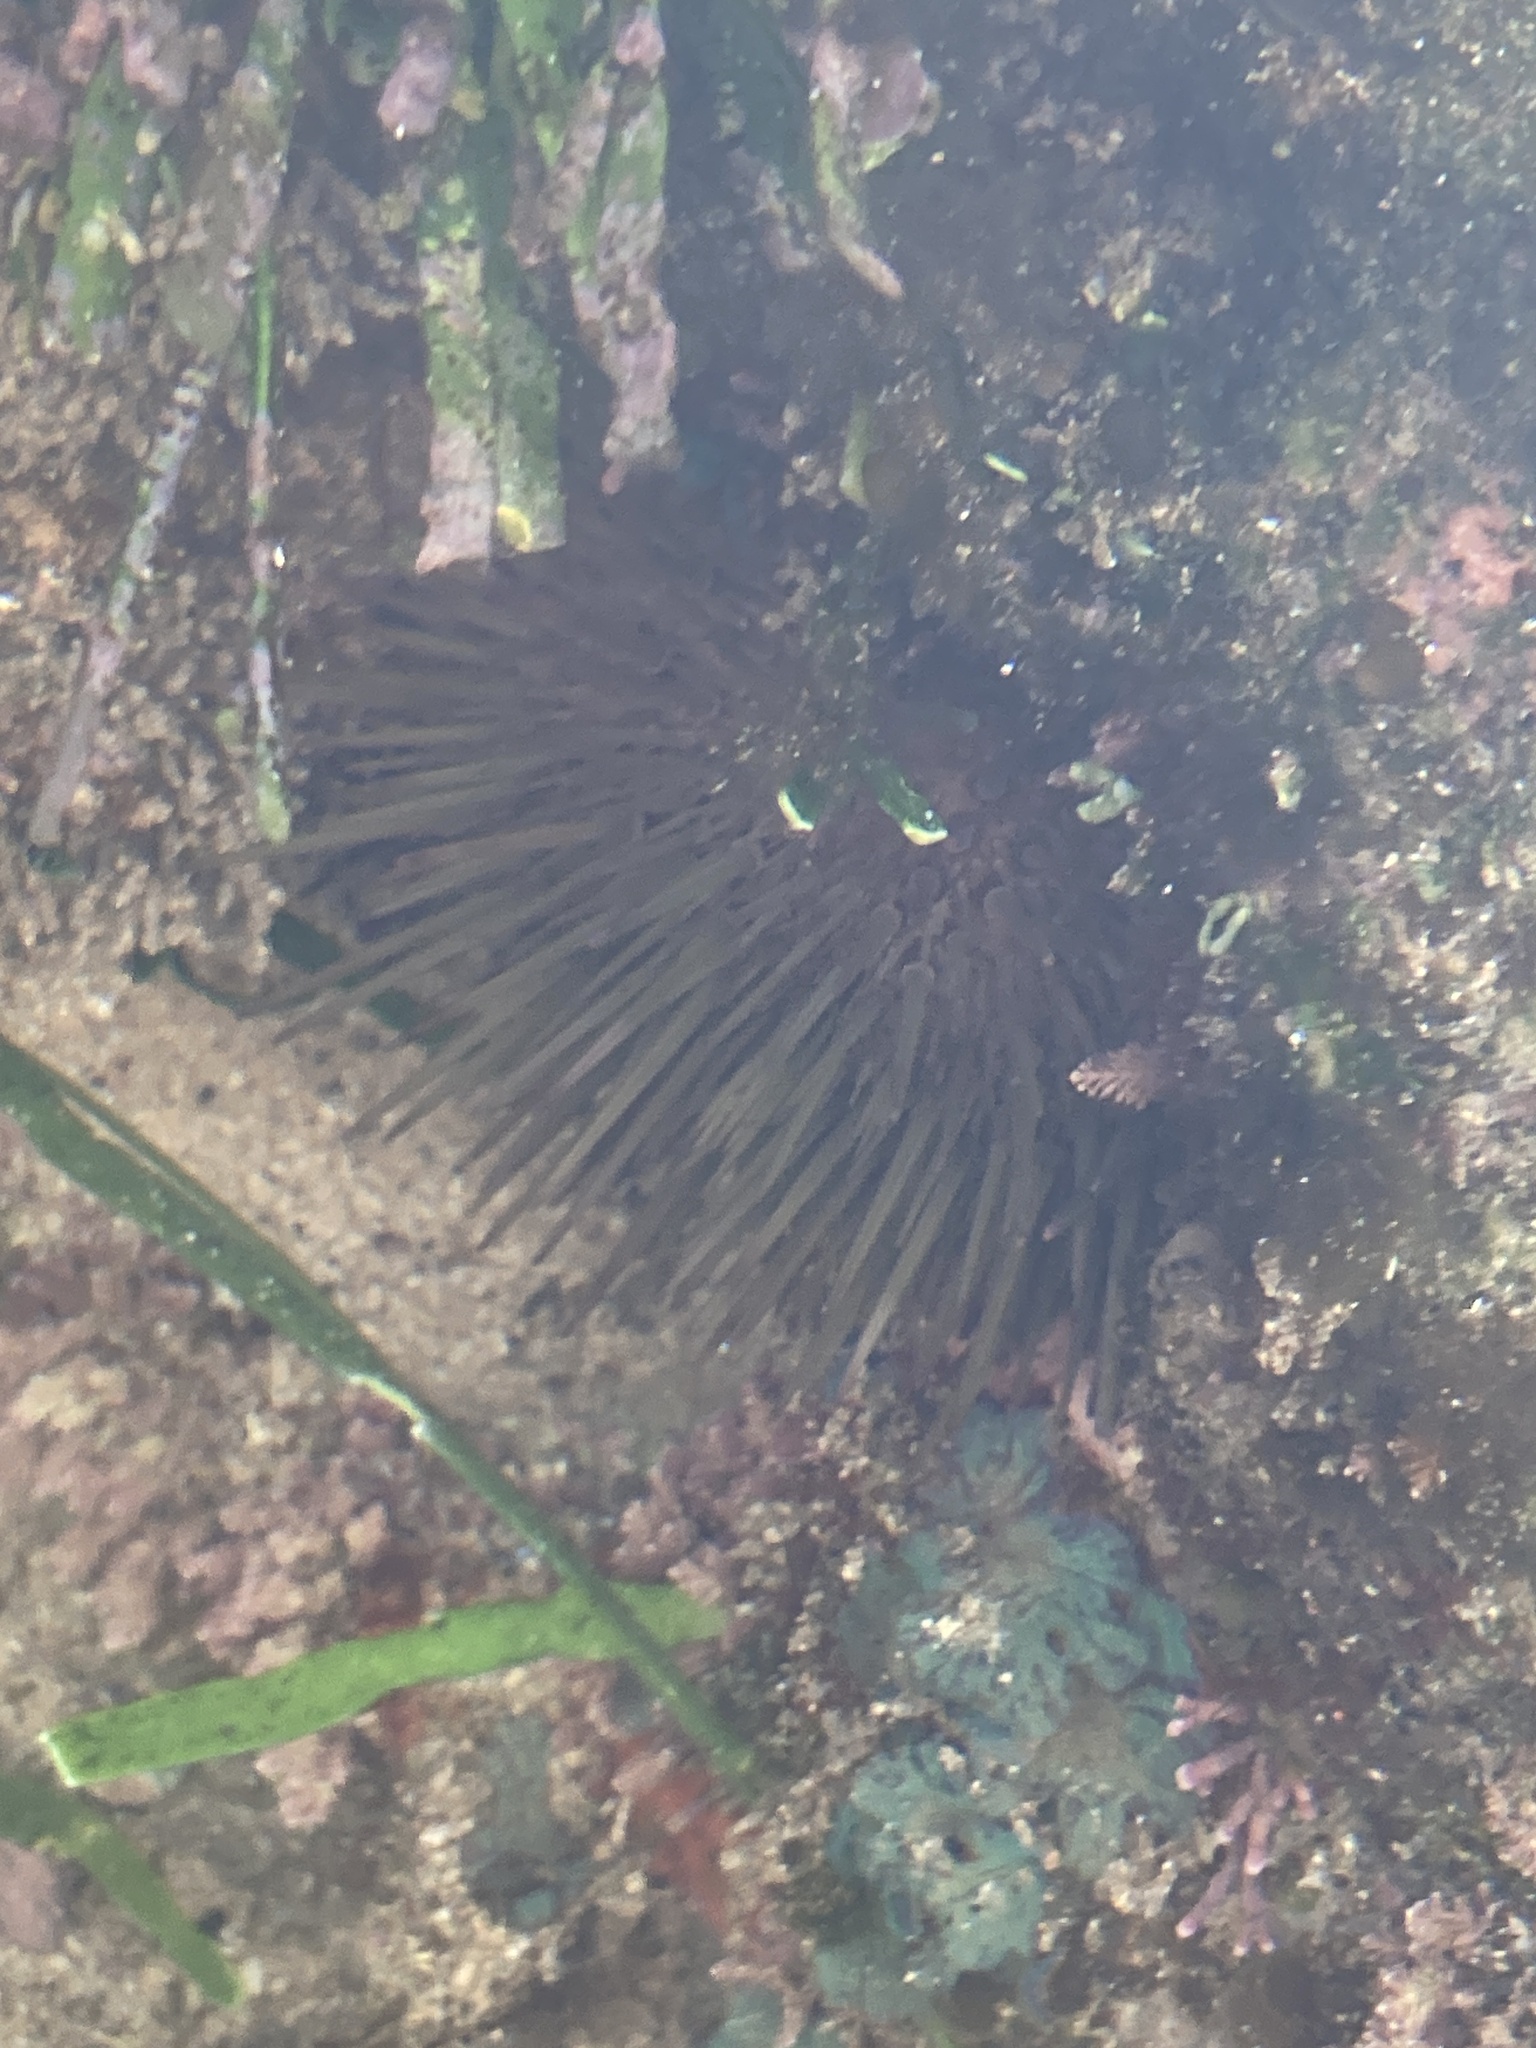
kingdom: Animalia
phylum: Echinodermata
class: Echinoidea
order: Camarodonta
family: Echinometridae
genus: Heliocidaris
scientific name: Heliocidaris erythrogramma
